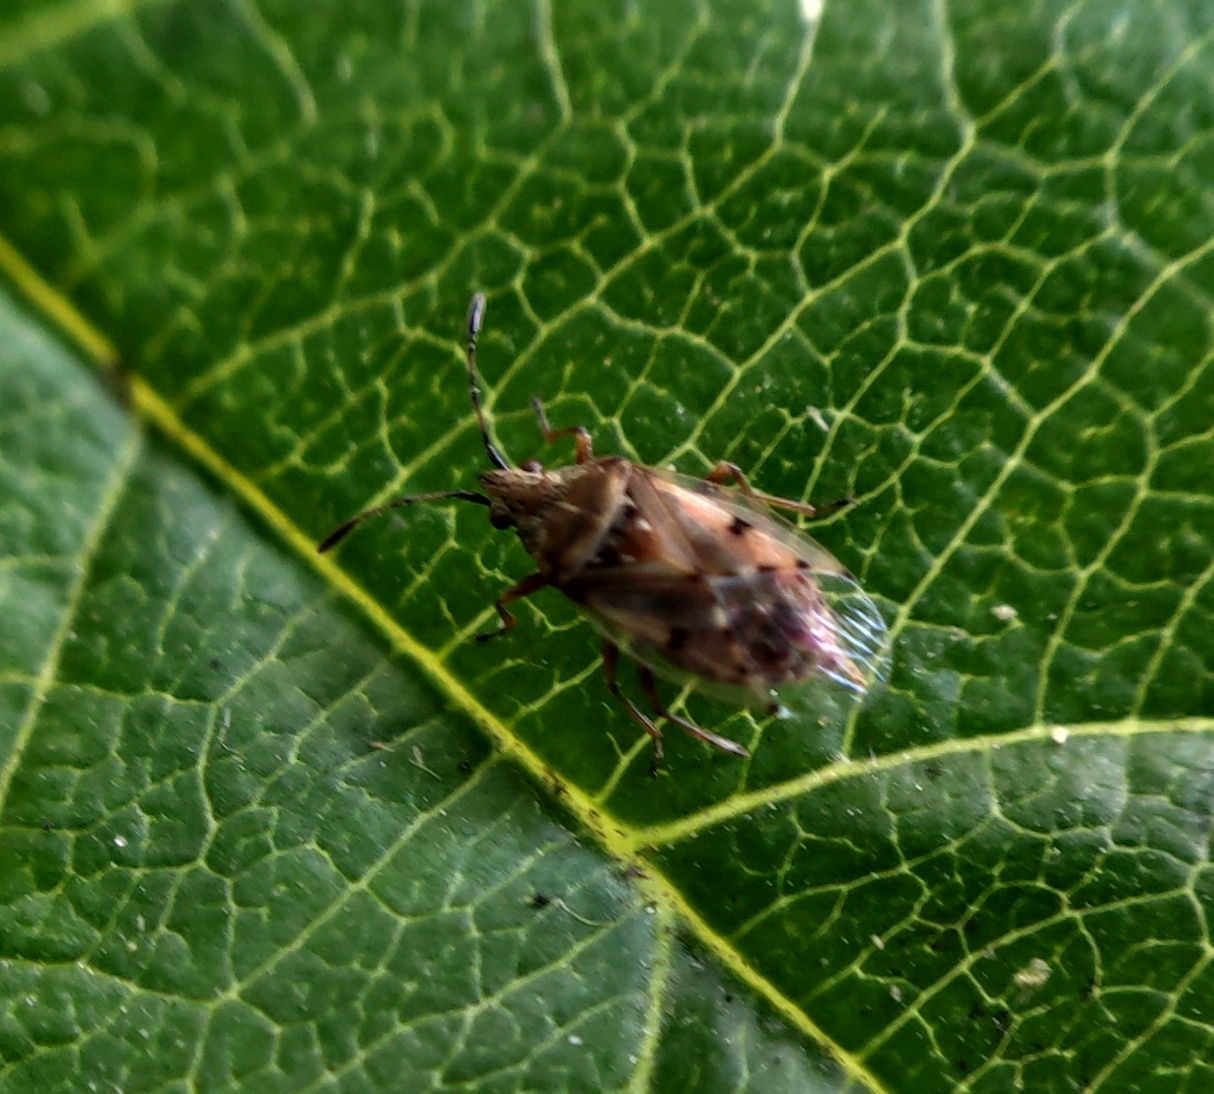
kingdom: Animalia
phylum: Arthropoda
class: Insecta
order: Hemiptera
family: Lygaeidae
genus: Kleidocerys
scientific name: Kleidocerys resedae
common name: Birch catkin bug
